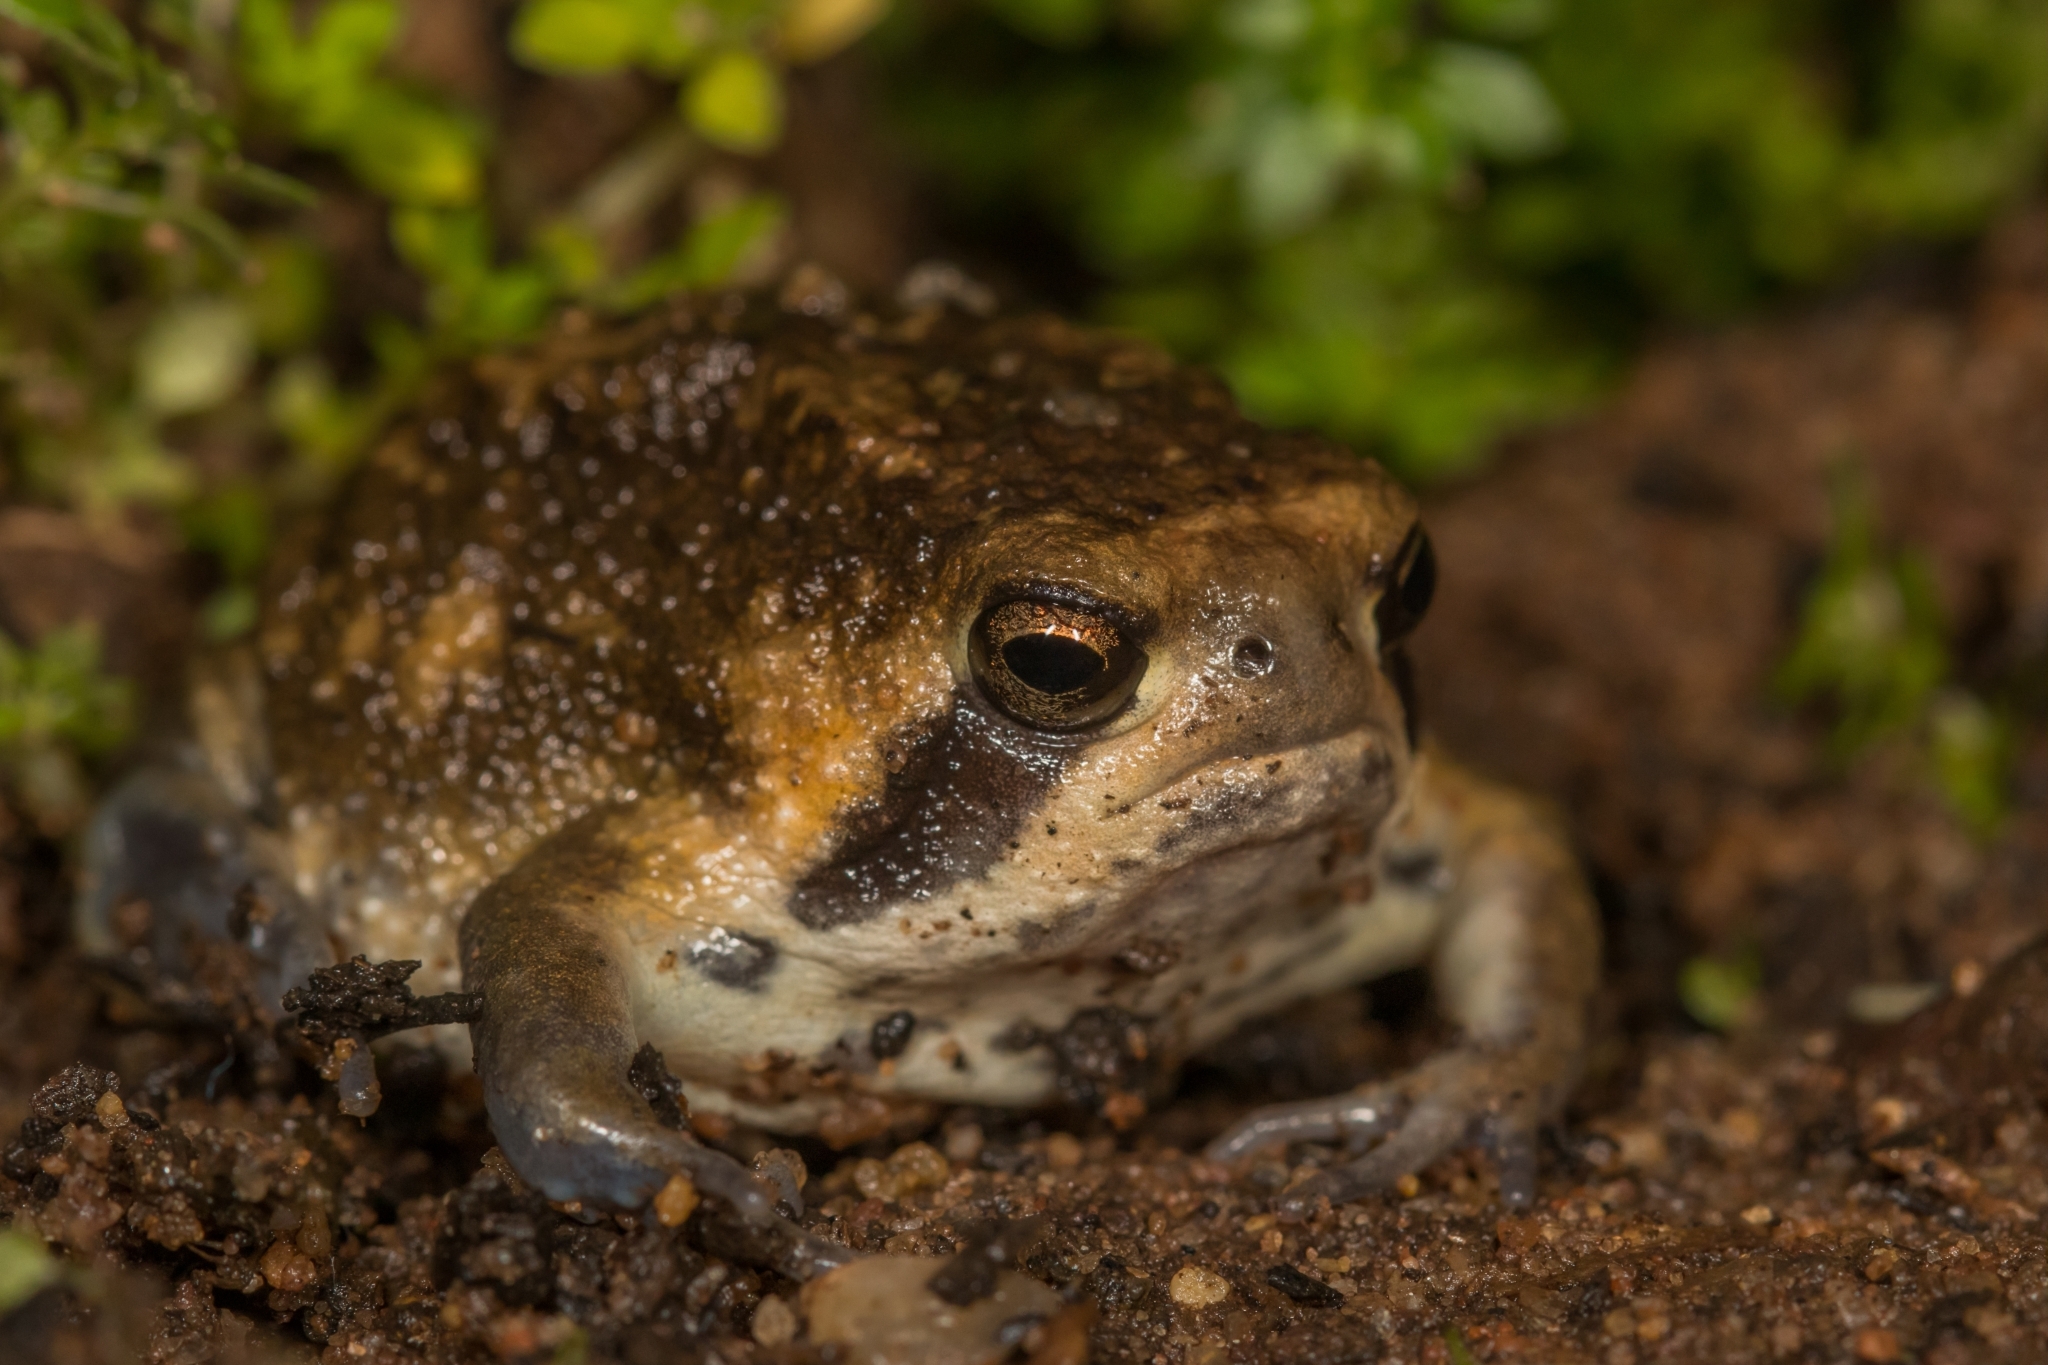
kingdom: Animalia
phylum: Chordata
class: Amphibia
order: Anura
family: Brevicipitidae
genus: Breviceps
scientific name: Breviceps bagginsi
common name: Bilbo's rain frog
